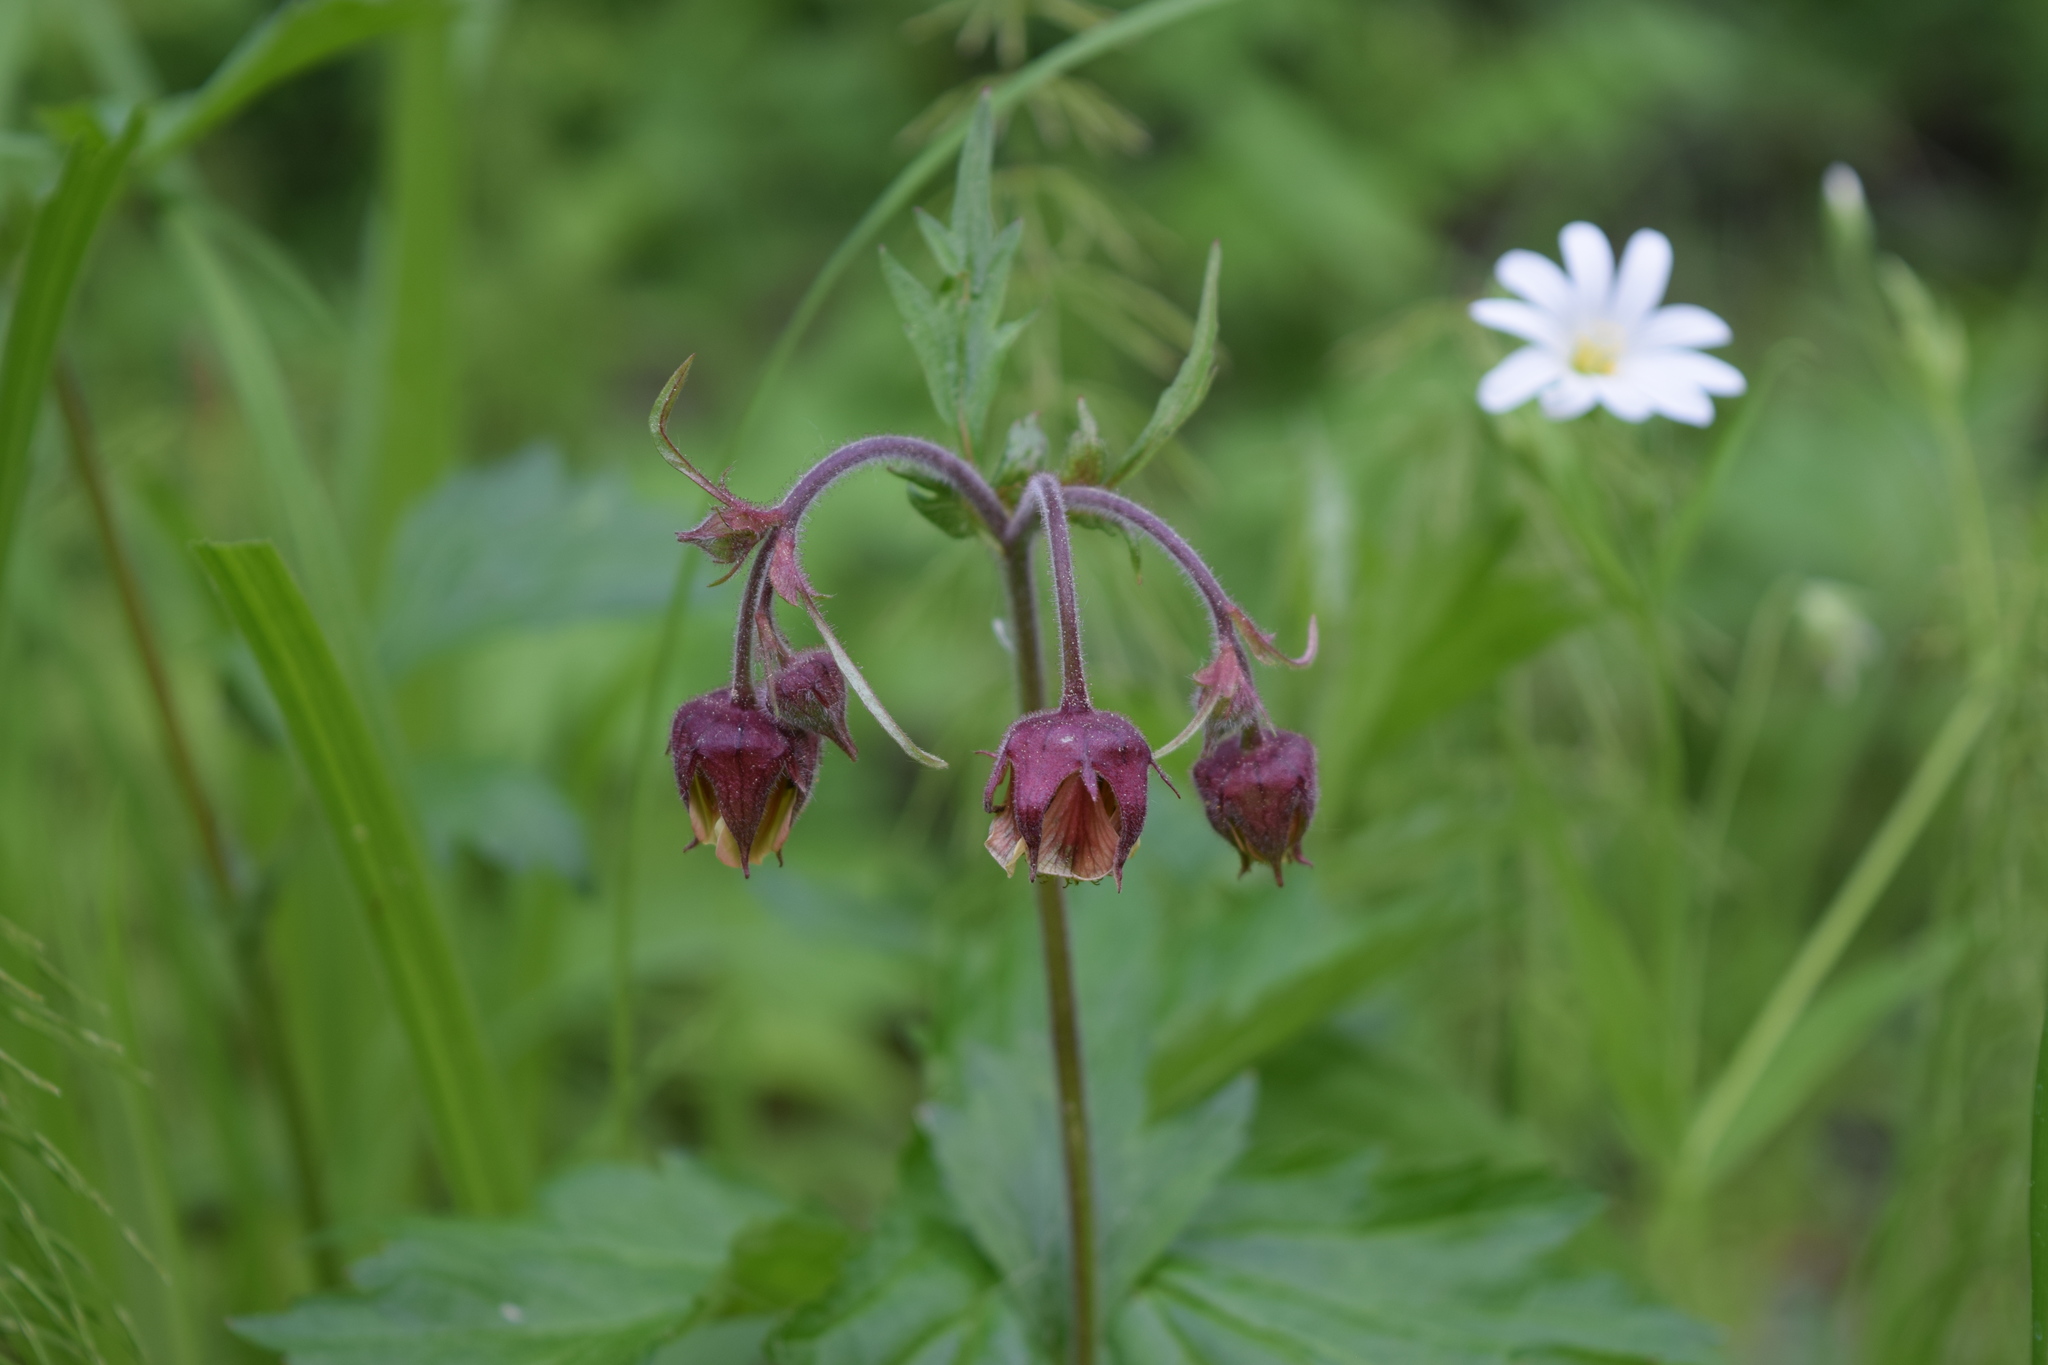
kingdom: Plantae
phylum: Tracheophyta
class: Magnoliopsida
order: Rosales
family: Rosaceae
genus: Geum
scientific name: Geum rivale
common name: Water avens
